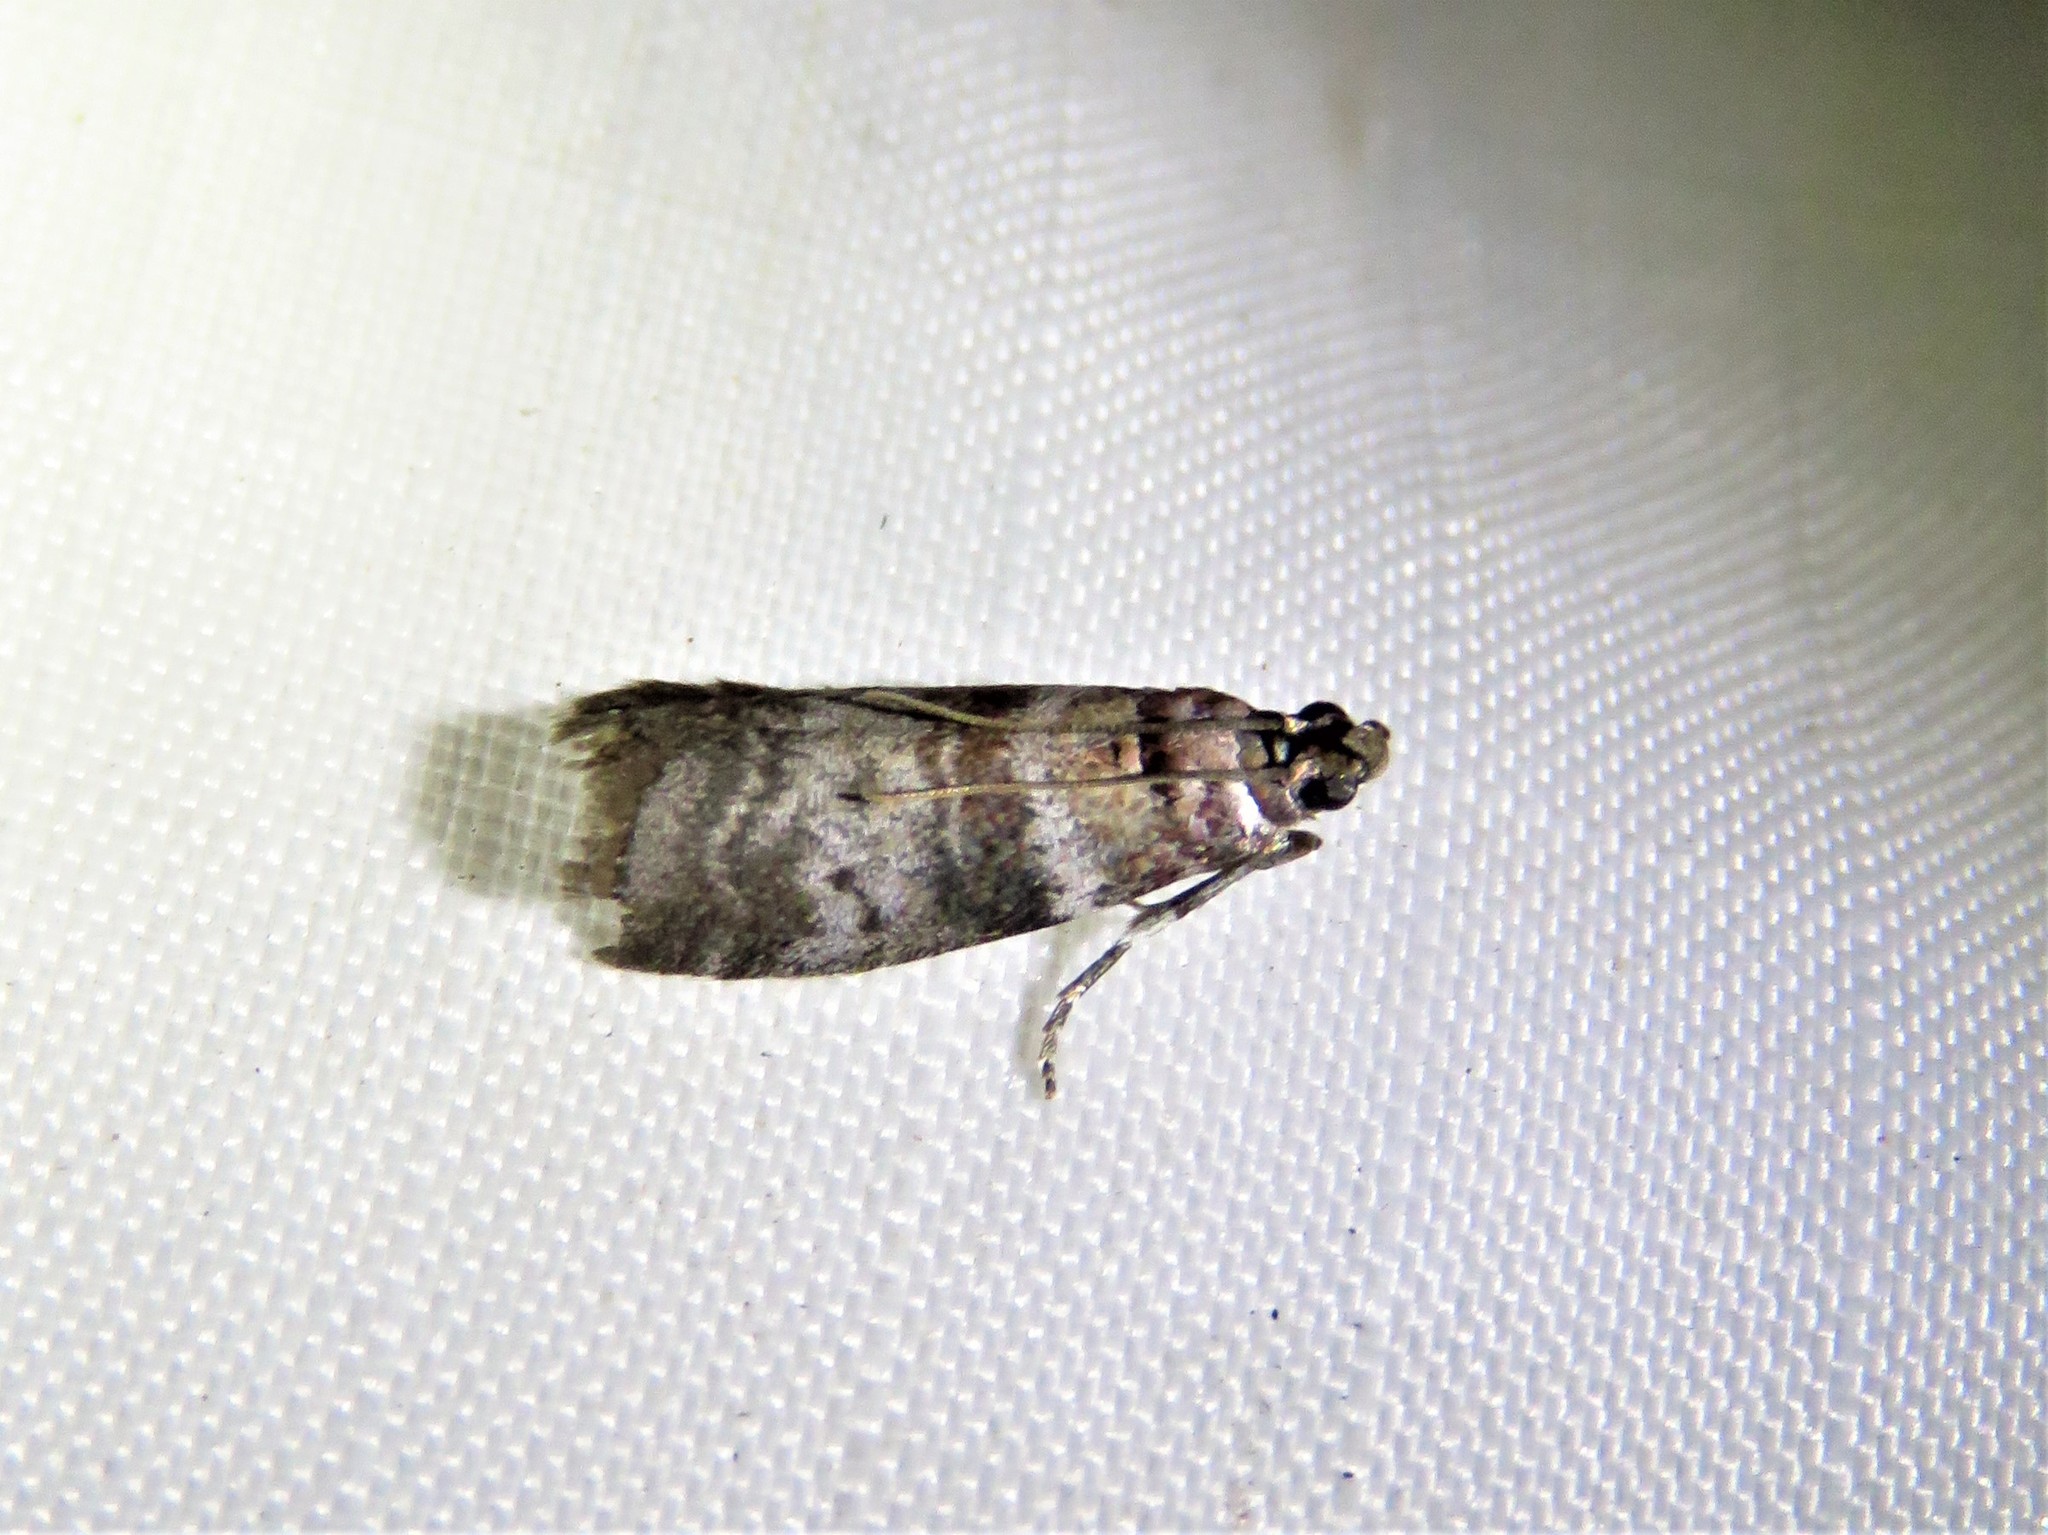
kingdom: Animalia
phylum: Arthropoda
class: Insecta
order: Lepidoptera
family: Pyralidae
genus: Sciota
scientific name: Sciota uvinella
